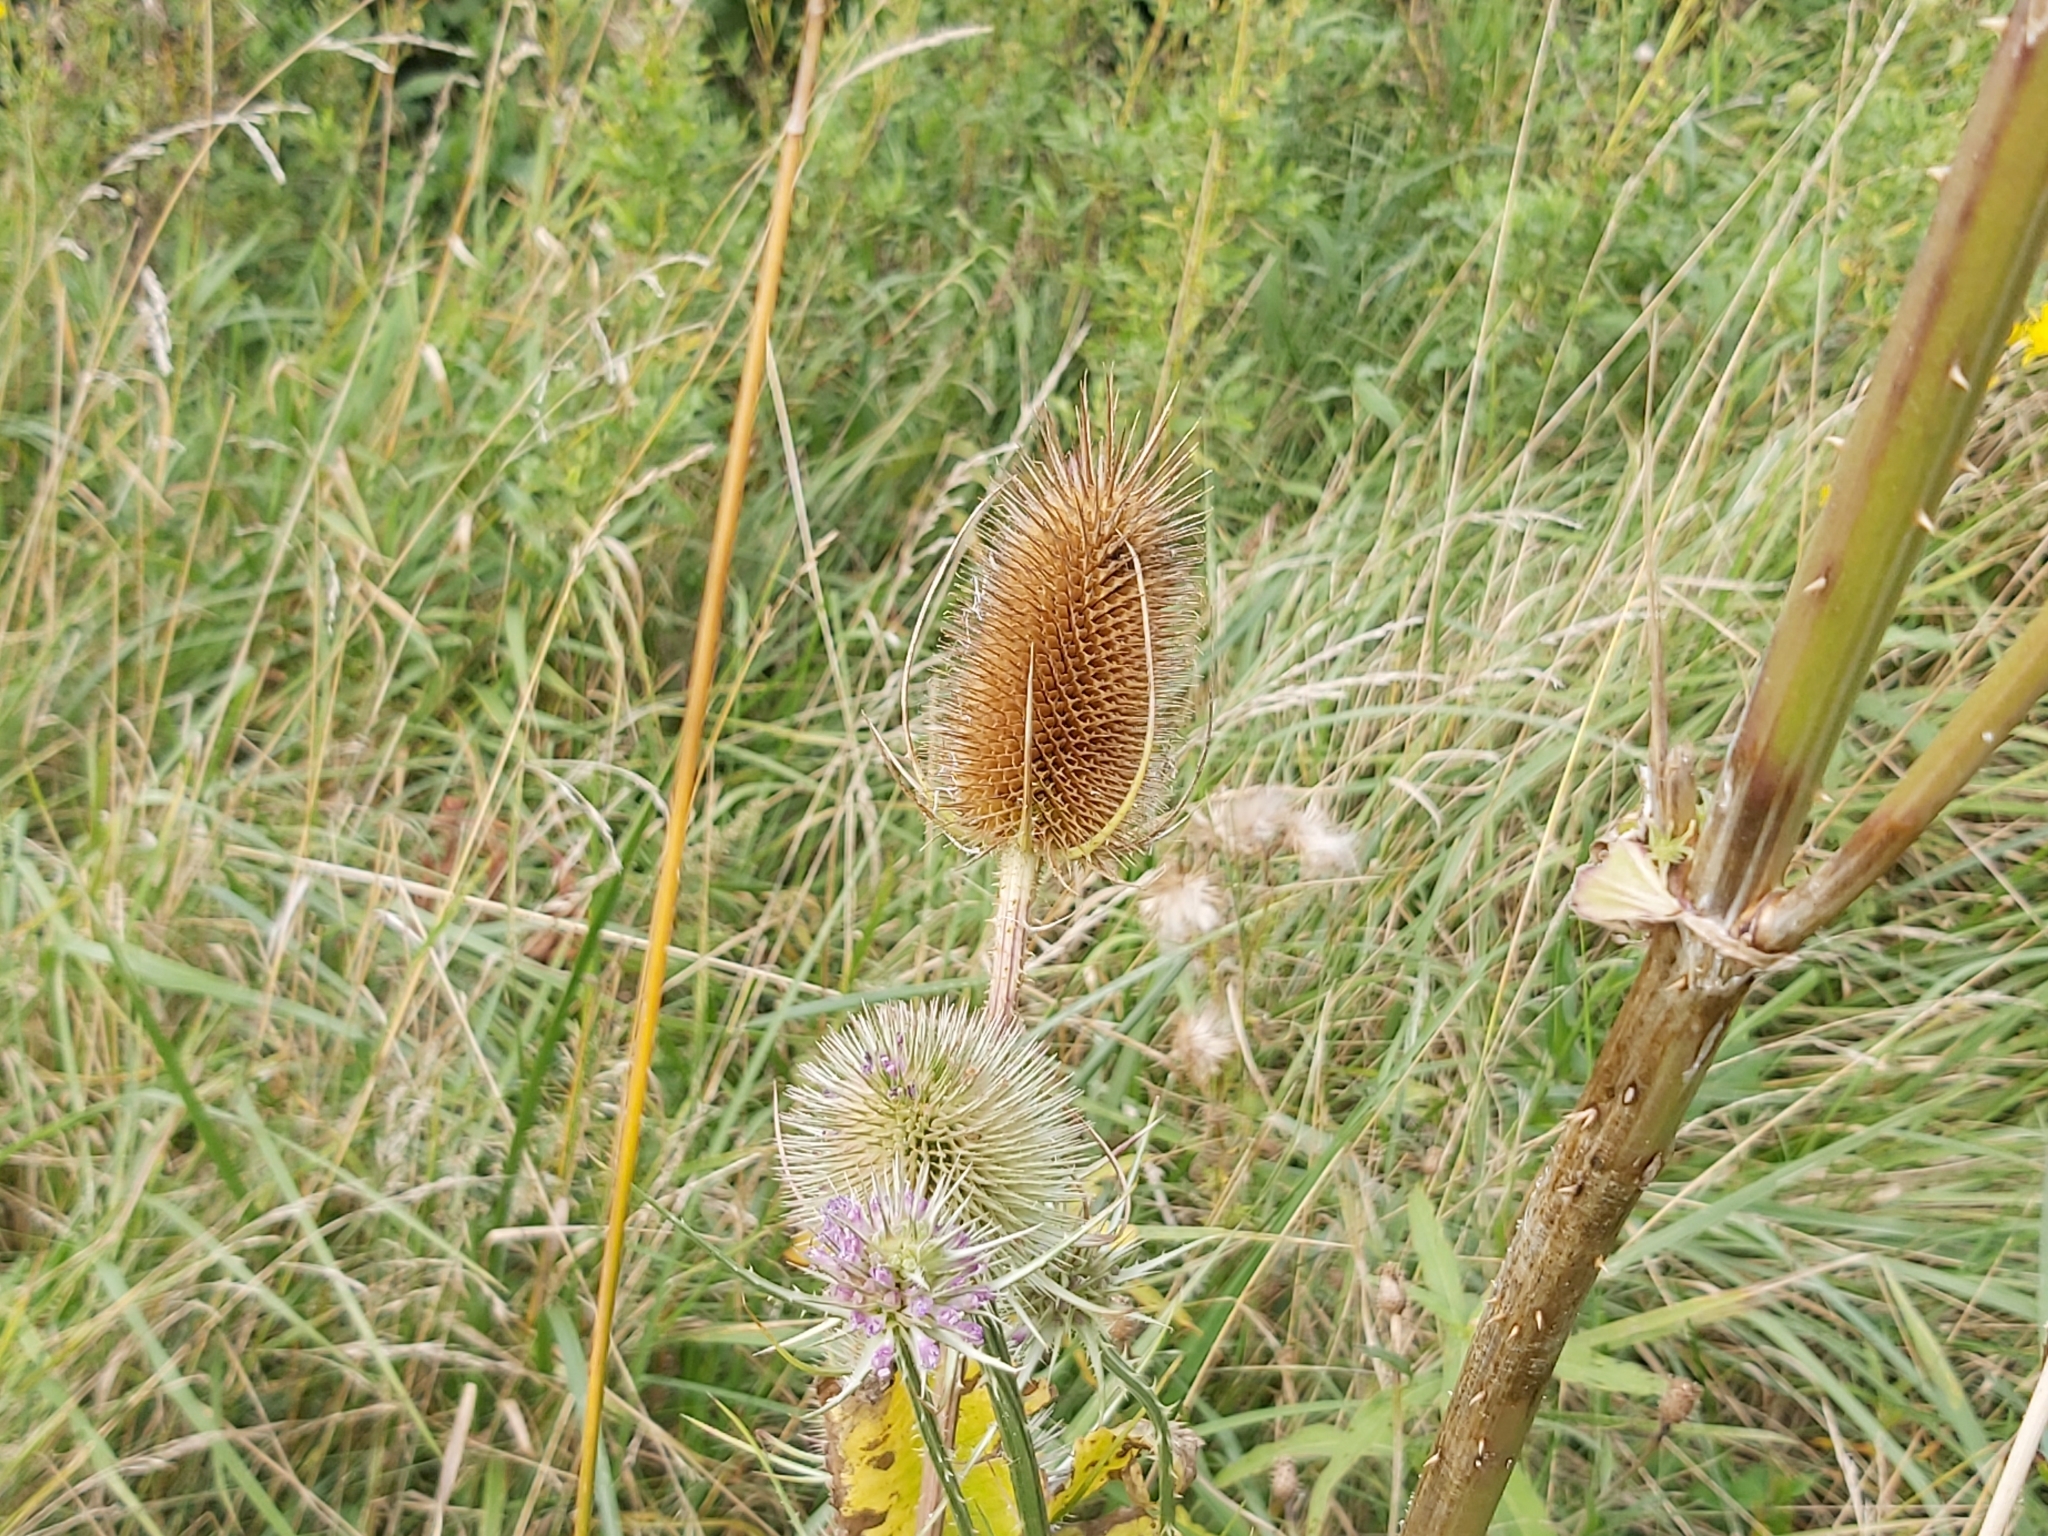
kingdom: Plantae
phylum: Tracheophyta
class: Magnoliopsida
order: Dipsacales
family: Caprifoliaceae
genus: Dipsacus
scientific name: Dipsacus fullonum
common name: Teasel
